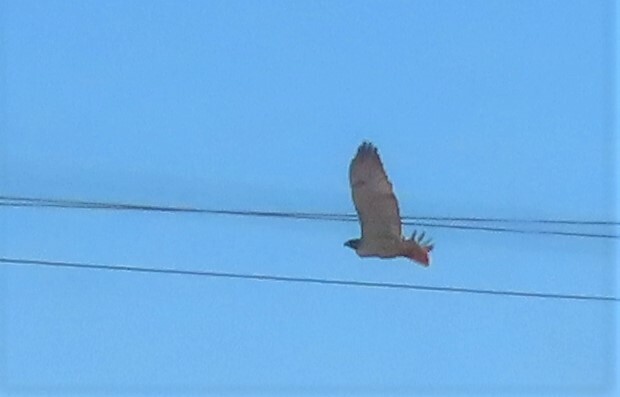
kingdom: Animalia
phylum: Chordata
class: Aves
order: Accipitriformes
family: Accipitridae
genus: Buteo
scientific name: Buteo jamaicensis
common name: Red-tailed hawk
